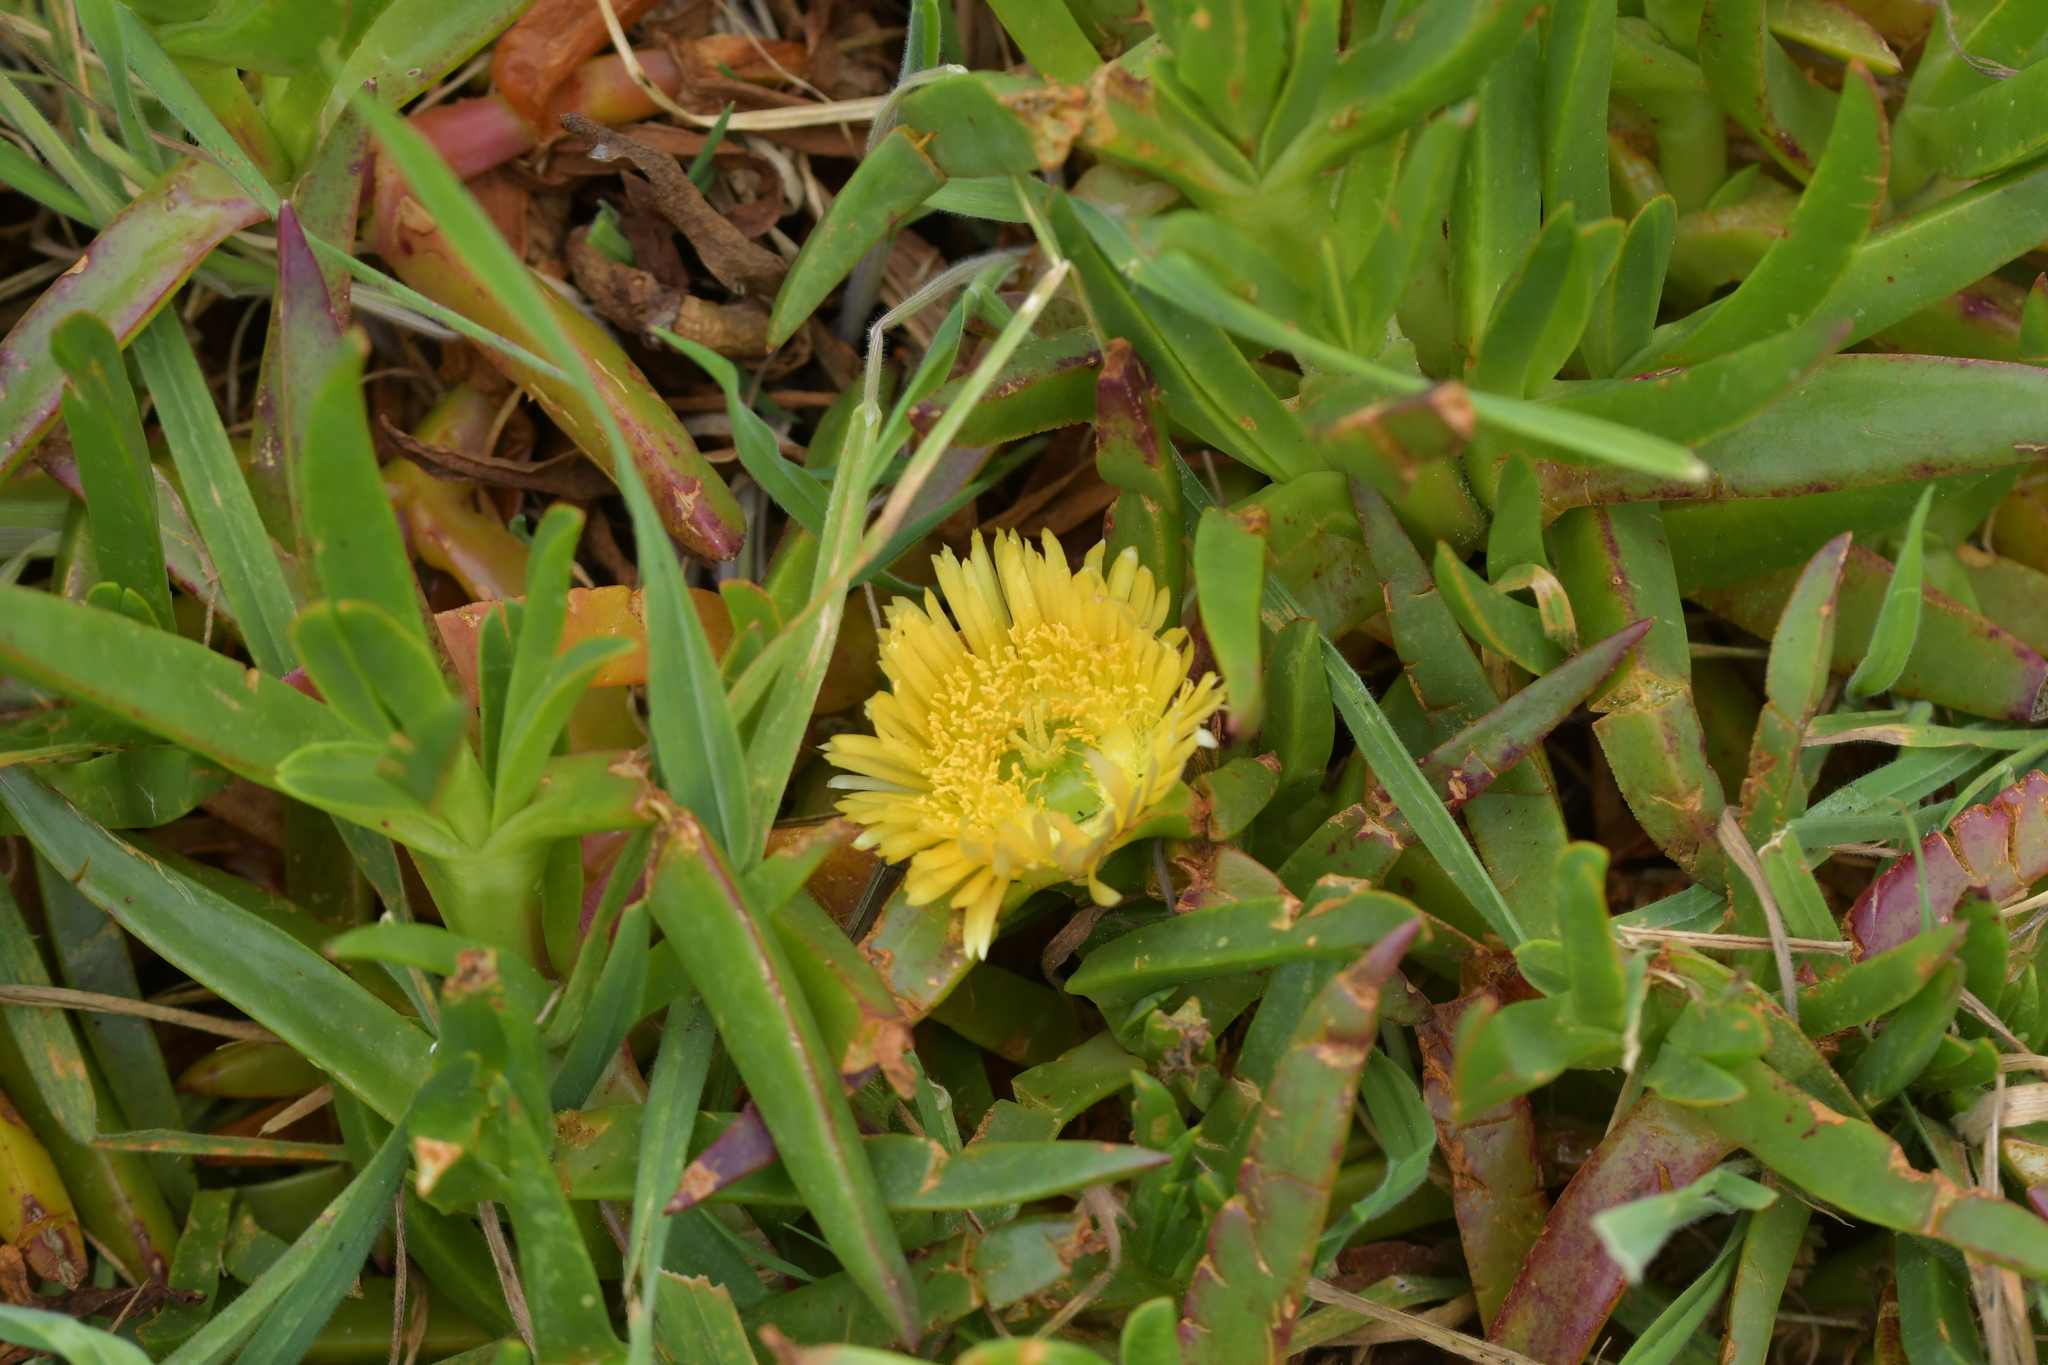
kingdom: Plantae
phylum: Tracheophyta
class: Magnoliopsida
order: Caryophyllales
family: Aizoaceae
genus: Carpobrotus
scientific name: Carpobrotus edulis
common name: Hottentot-fig
